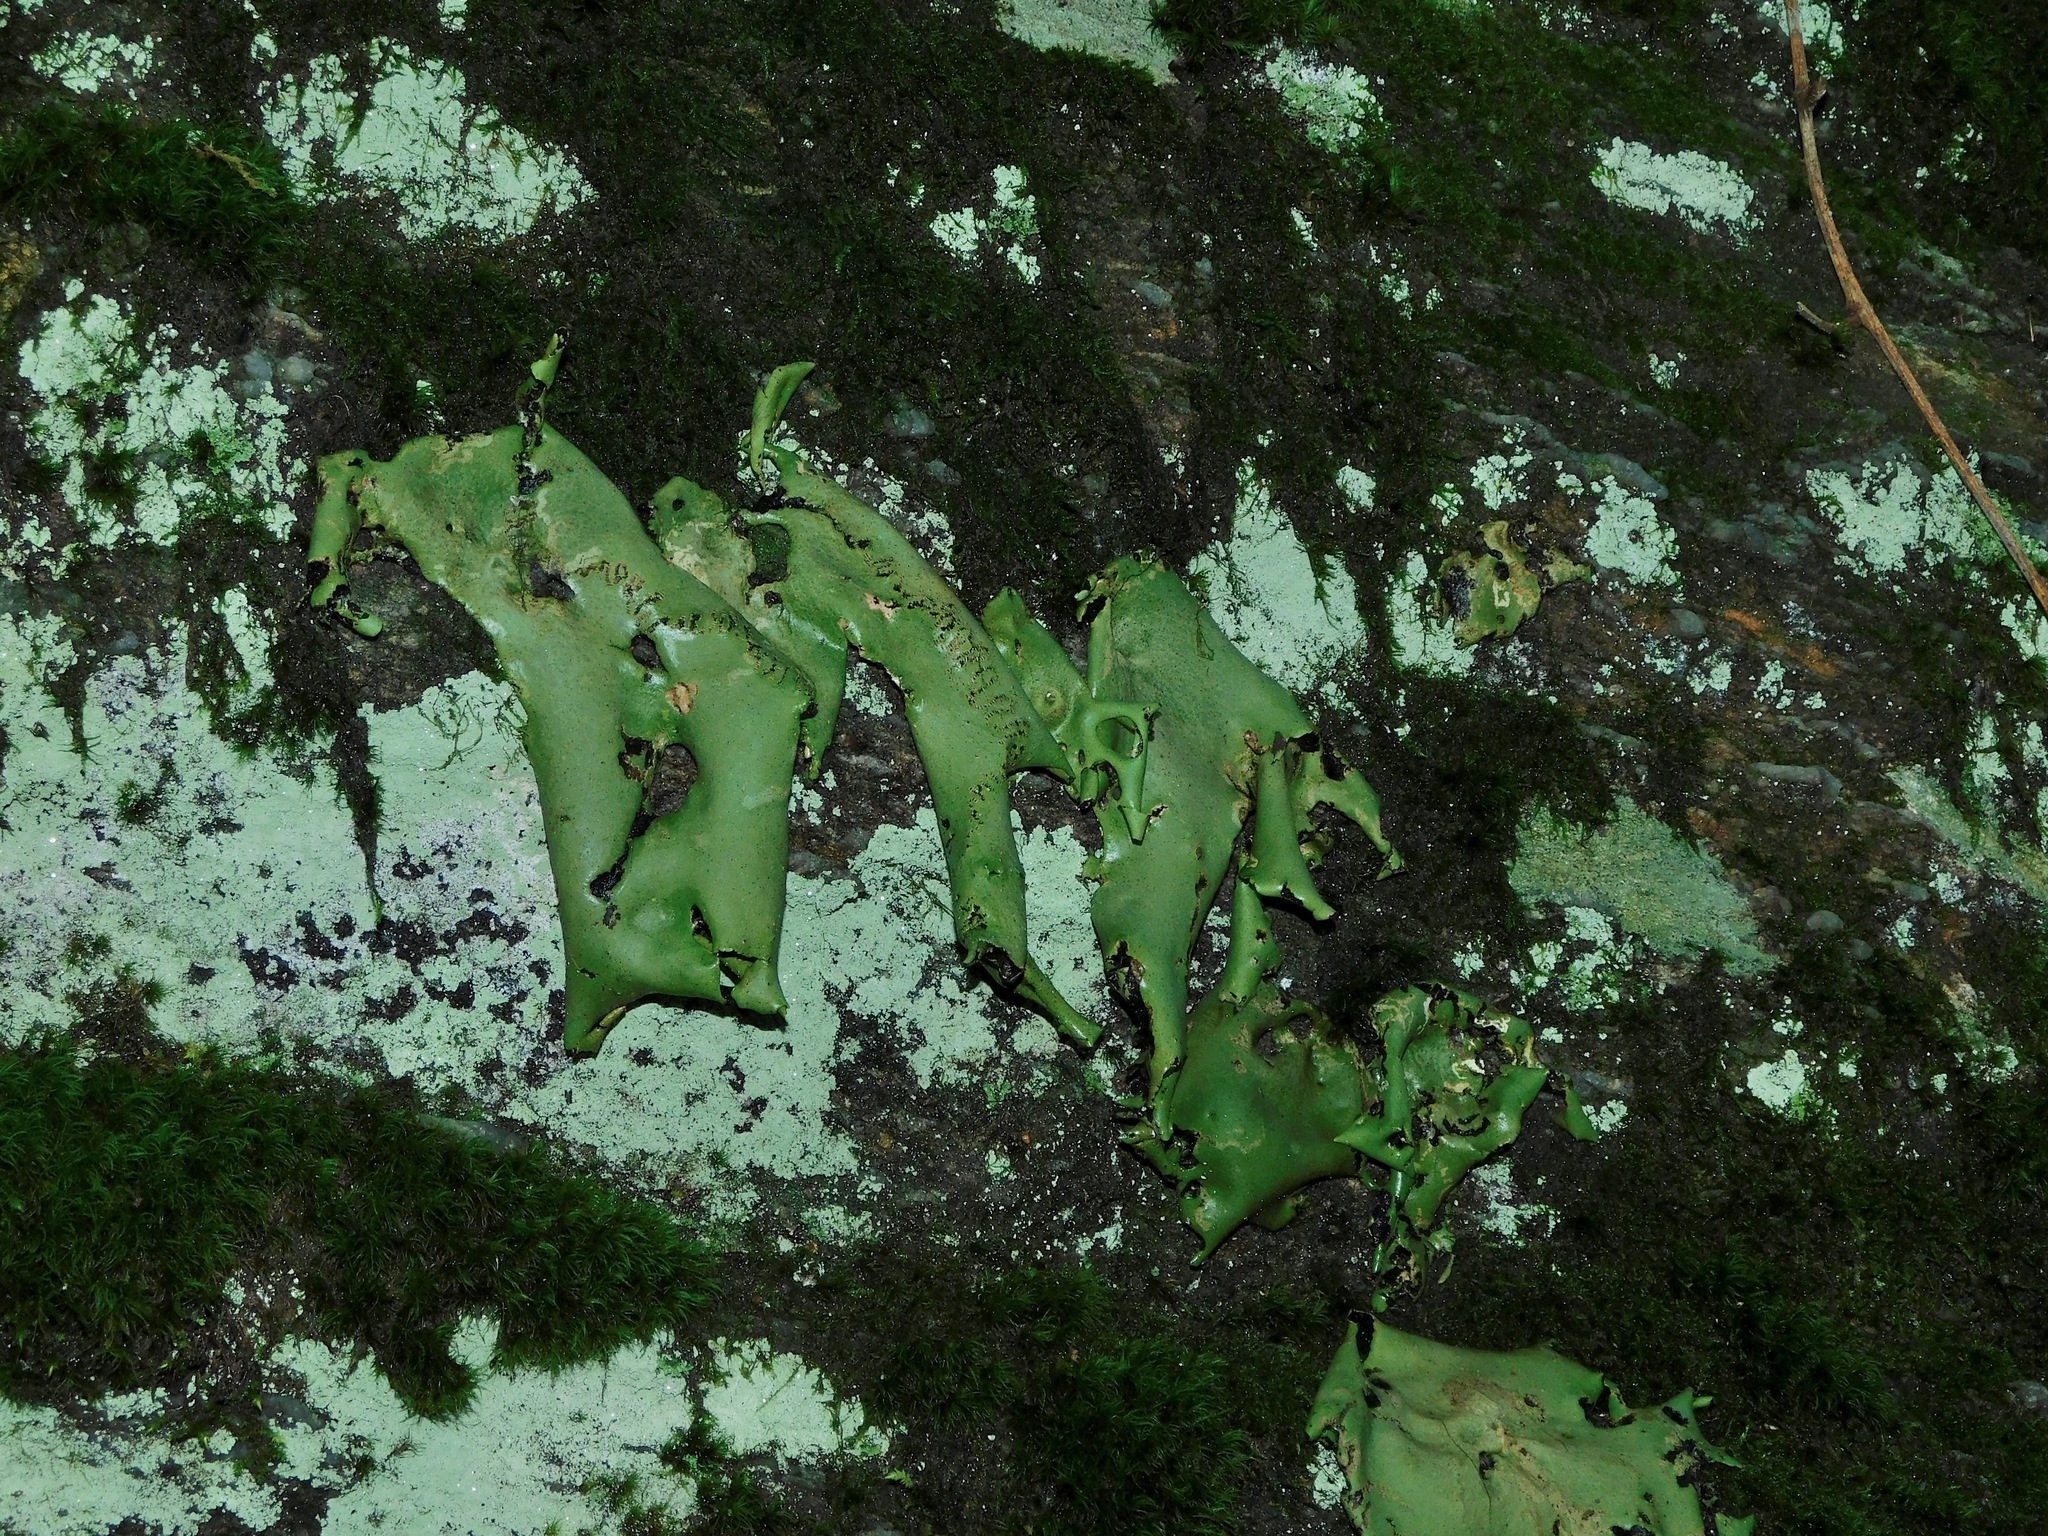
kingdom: Fungi
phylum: Ascomycota
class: Lecanoromycetes
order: Umbilicariales
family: Umbilicariaceae
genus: Umbilicaria
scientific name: Umbilicaria mammulata
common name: Smooth rock tripe
